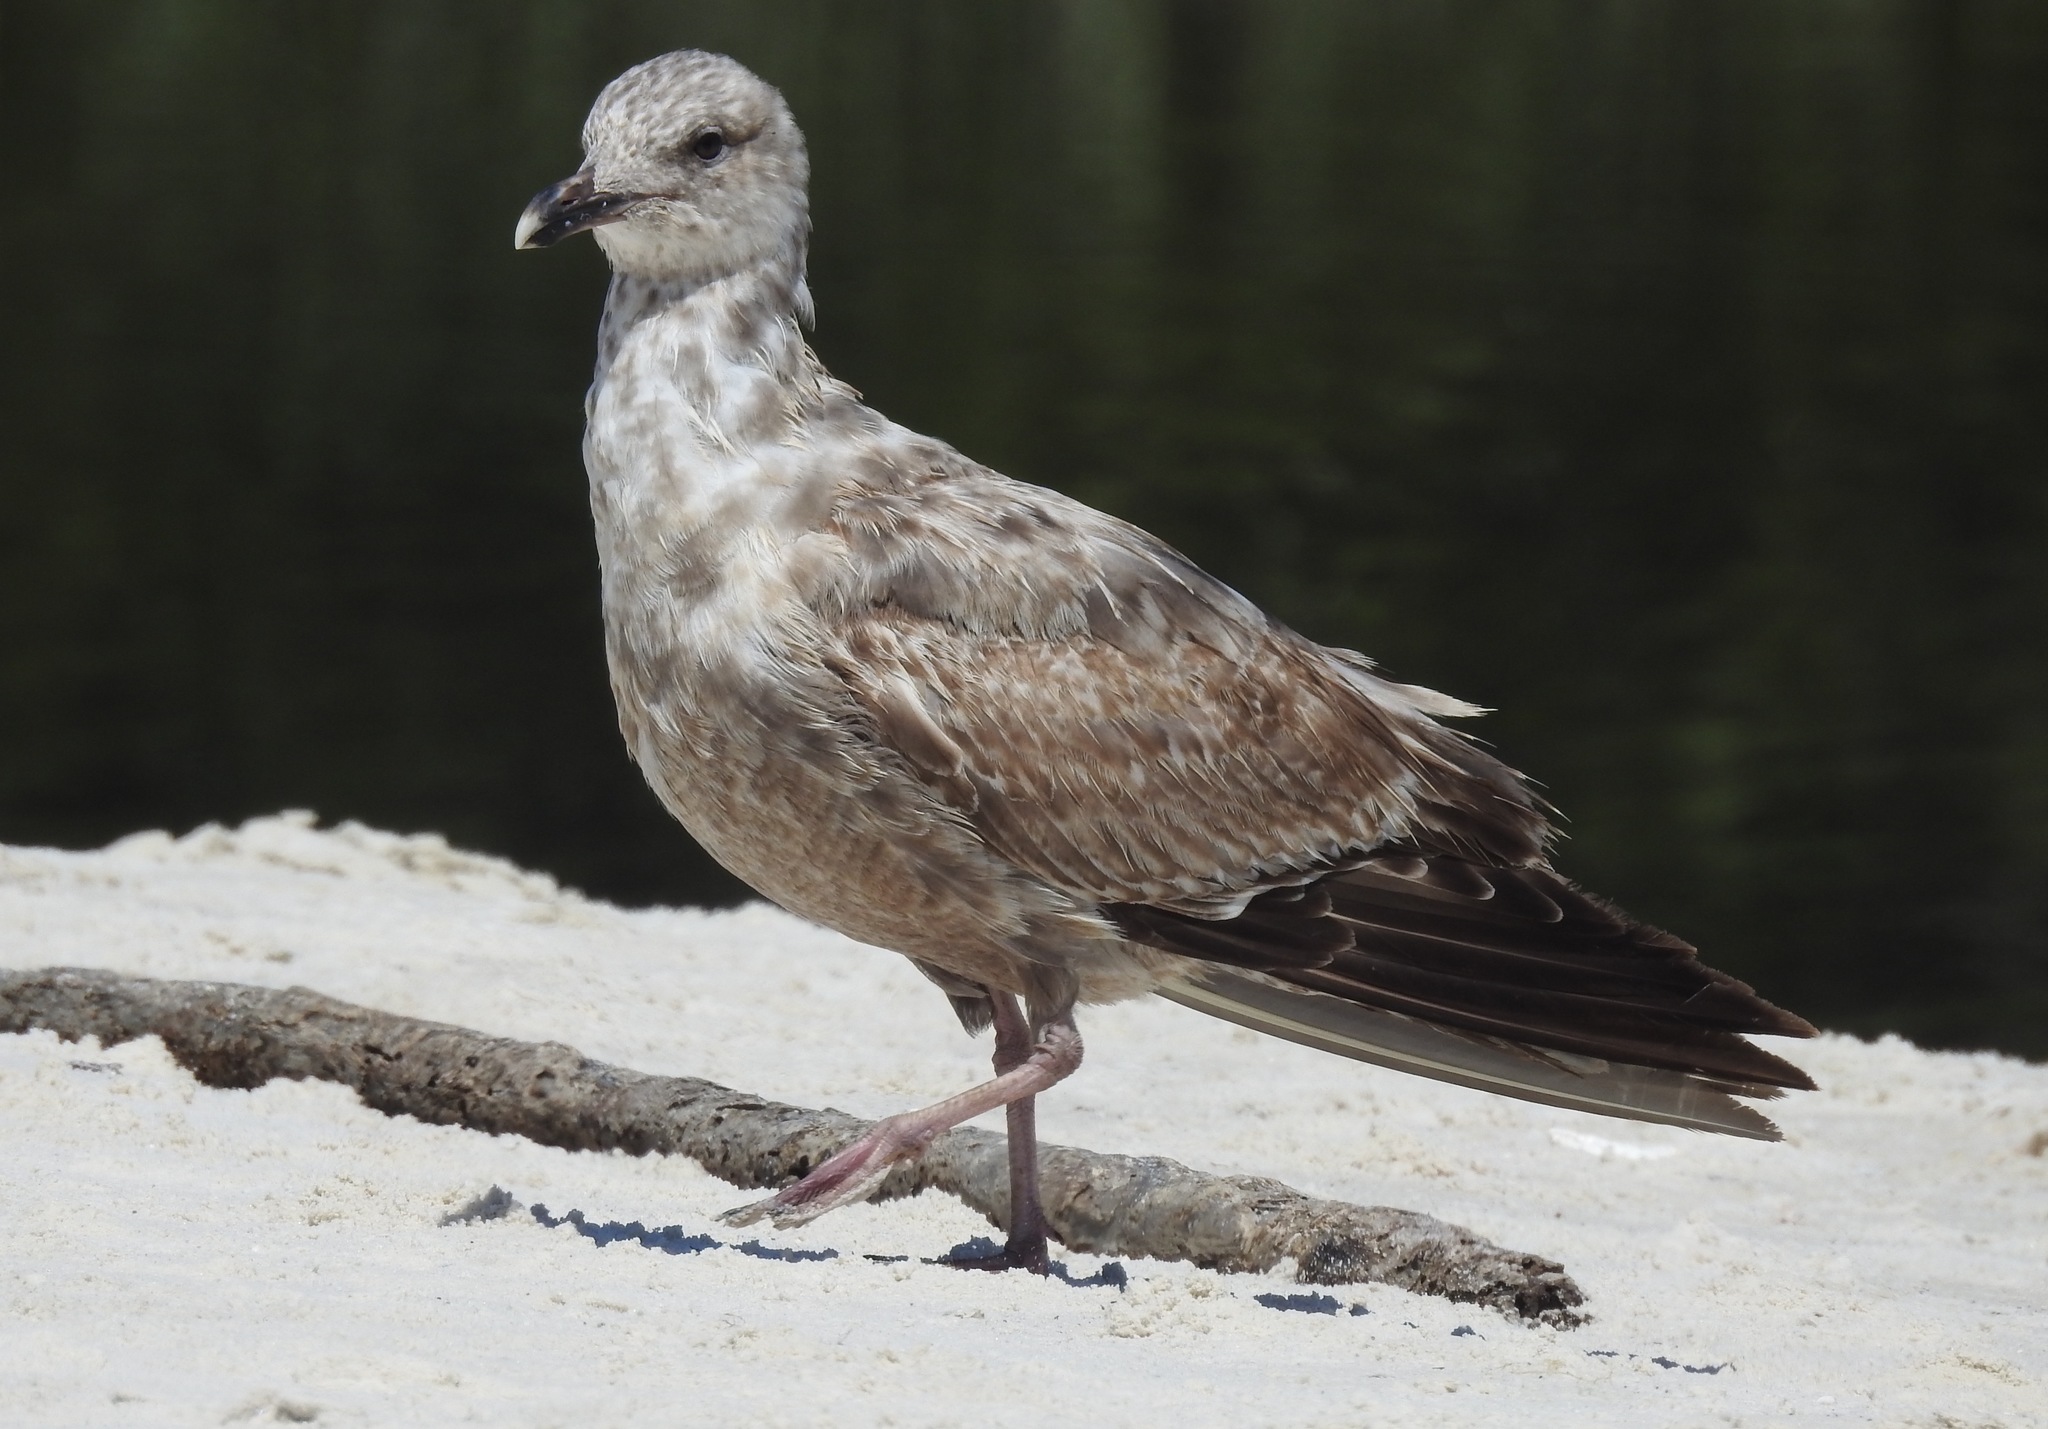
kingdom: Animalia
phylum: Chordata
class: Aves
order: Charadriiformes
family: Laridae
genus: Larus
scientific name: Larus argentatus
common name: Herring gull
